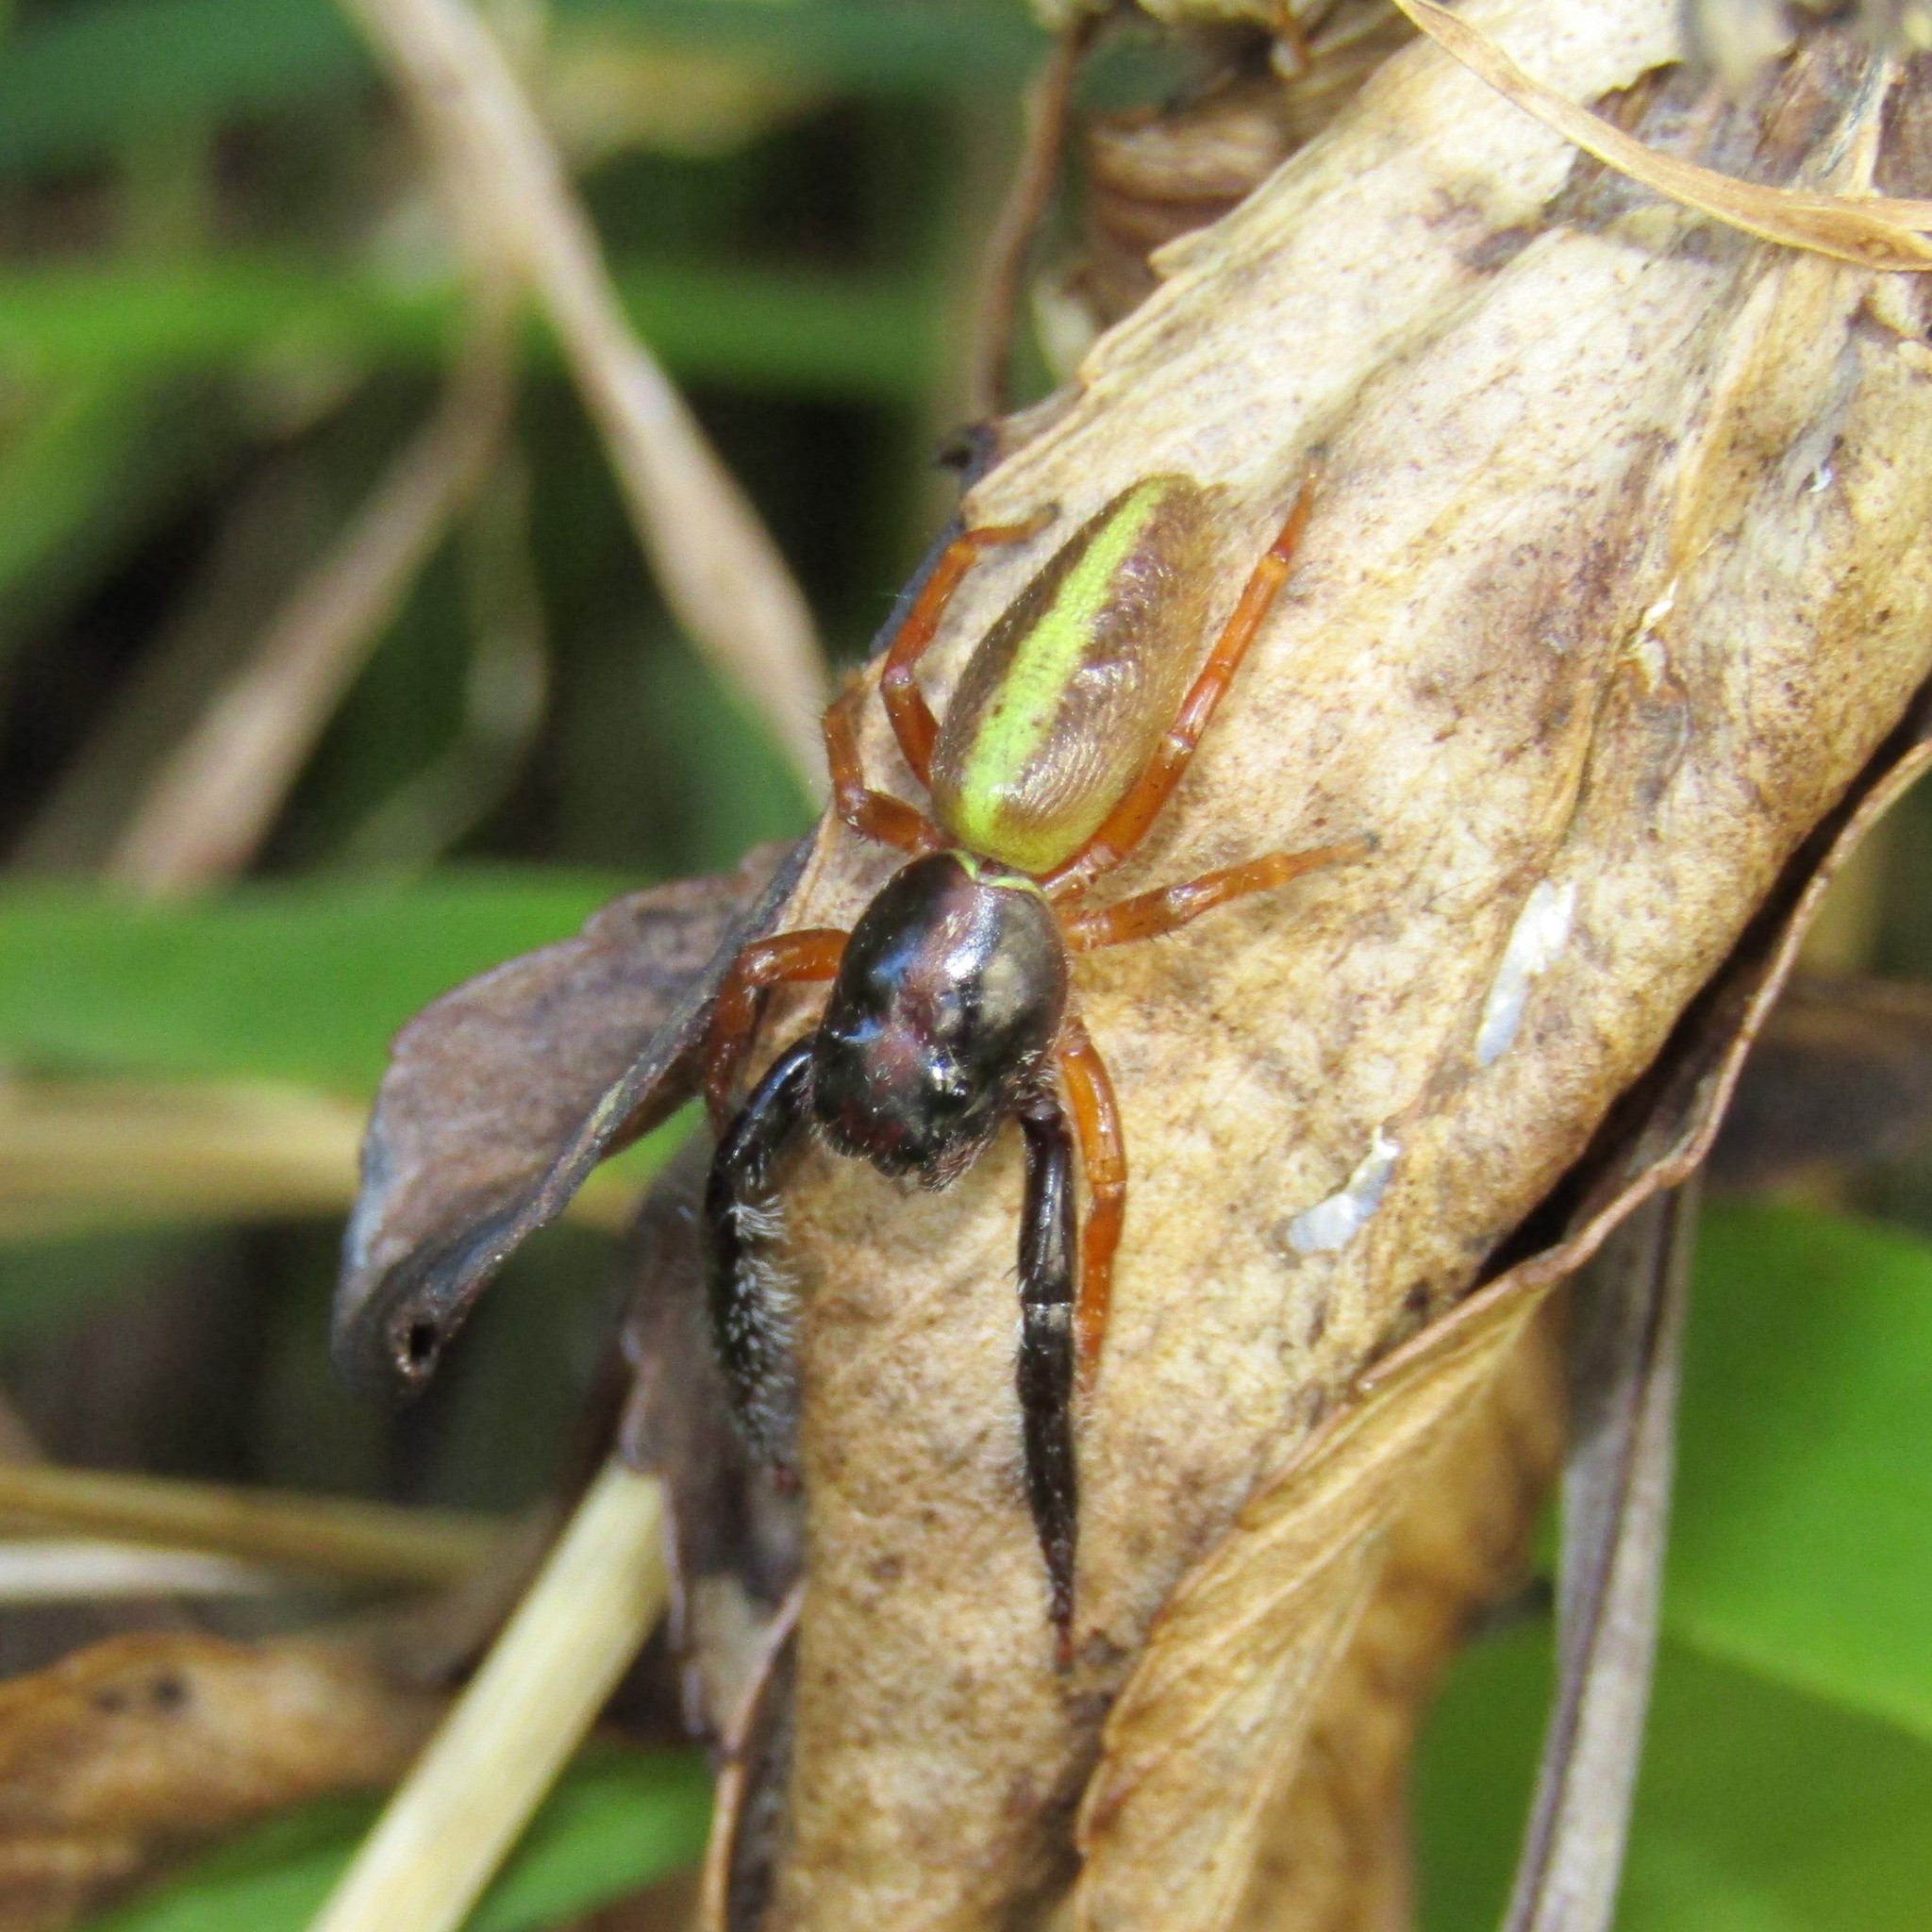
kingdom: Animalia
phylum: Arthropoda
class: Arachnida
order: Araneae
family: Salticidae
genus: Trite
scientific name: Trite planiceps
